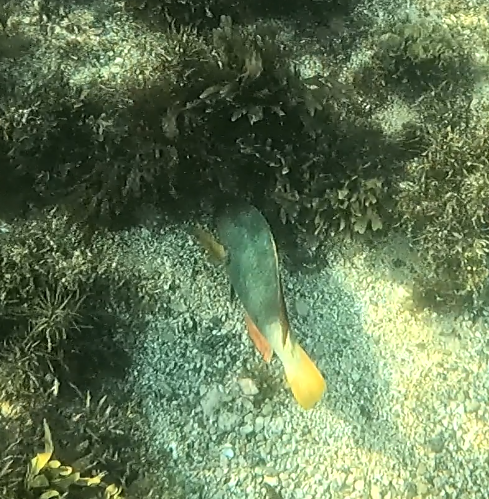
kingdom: Animalia
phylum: Chordata
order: Perciformes
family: Labridae
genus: Notolabrus
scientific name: Notolabrus gymnogenis
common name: Crimson banded wrasse
